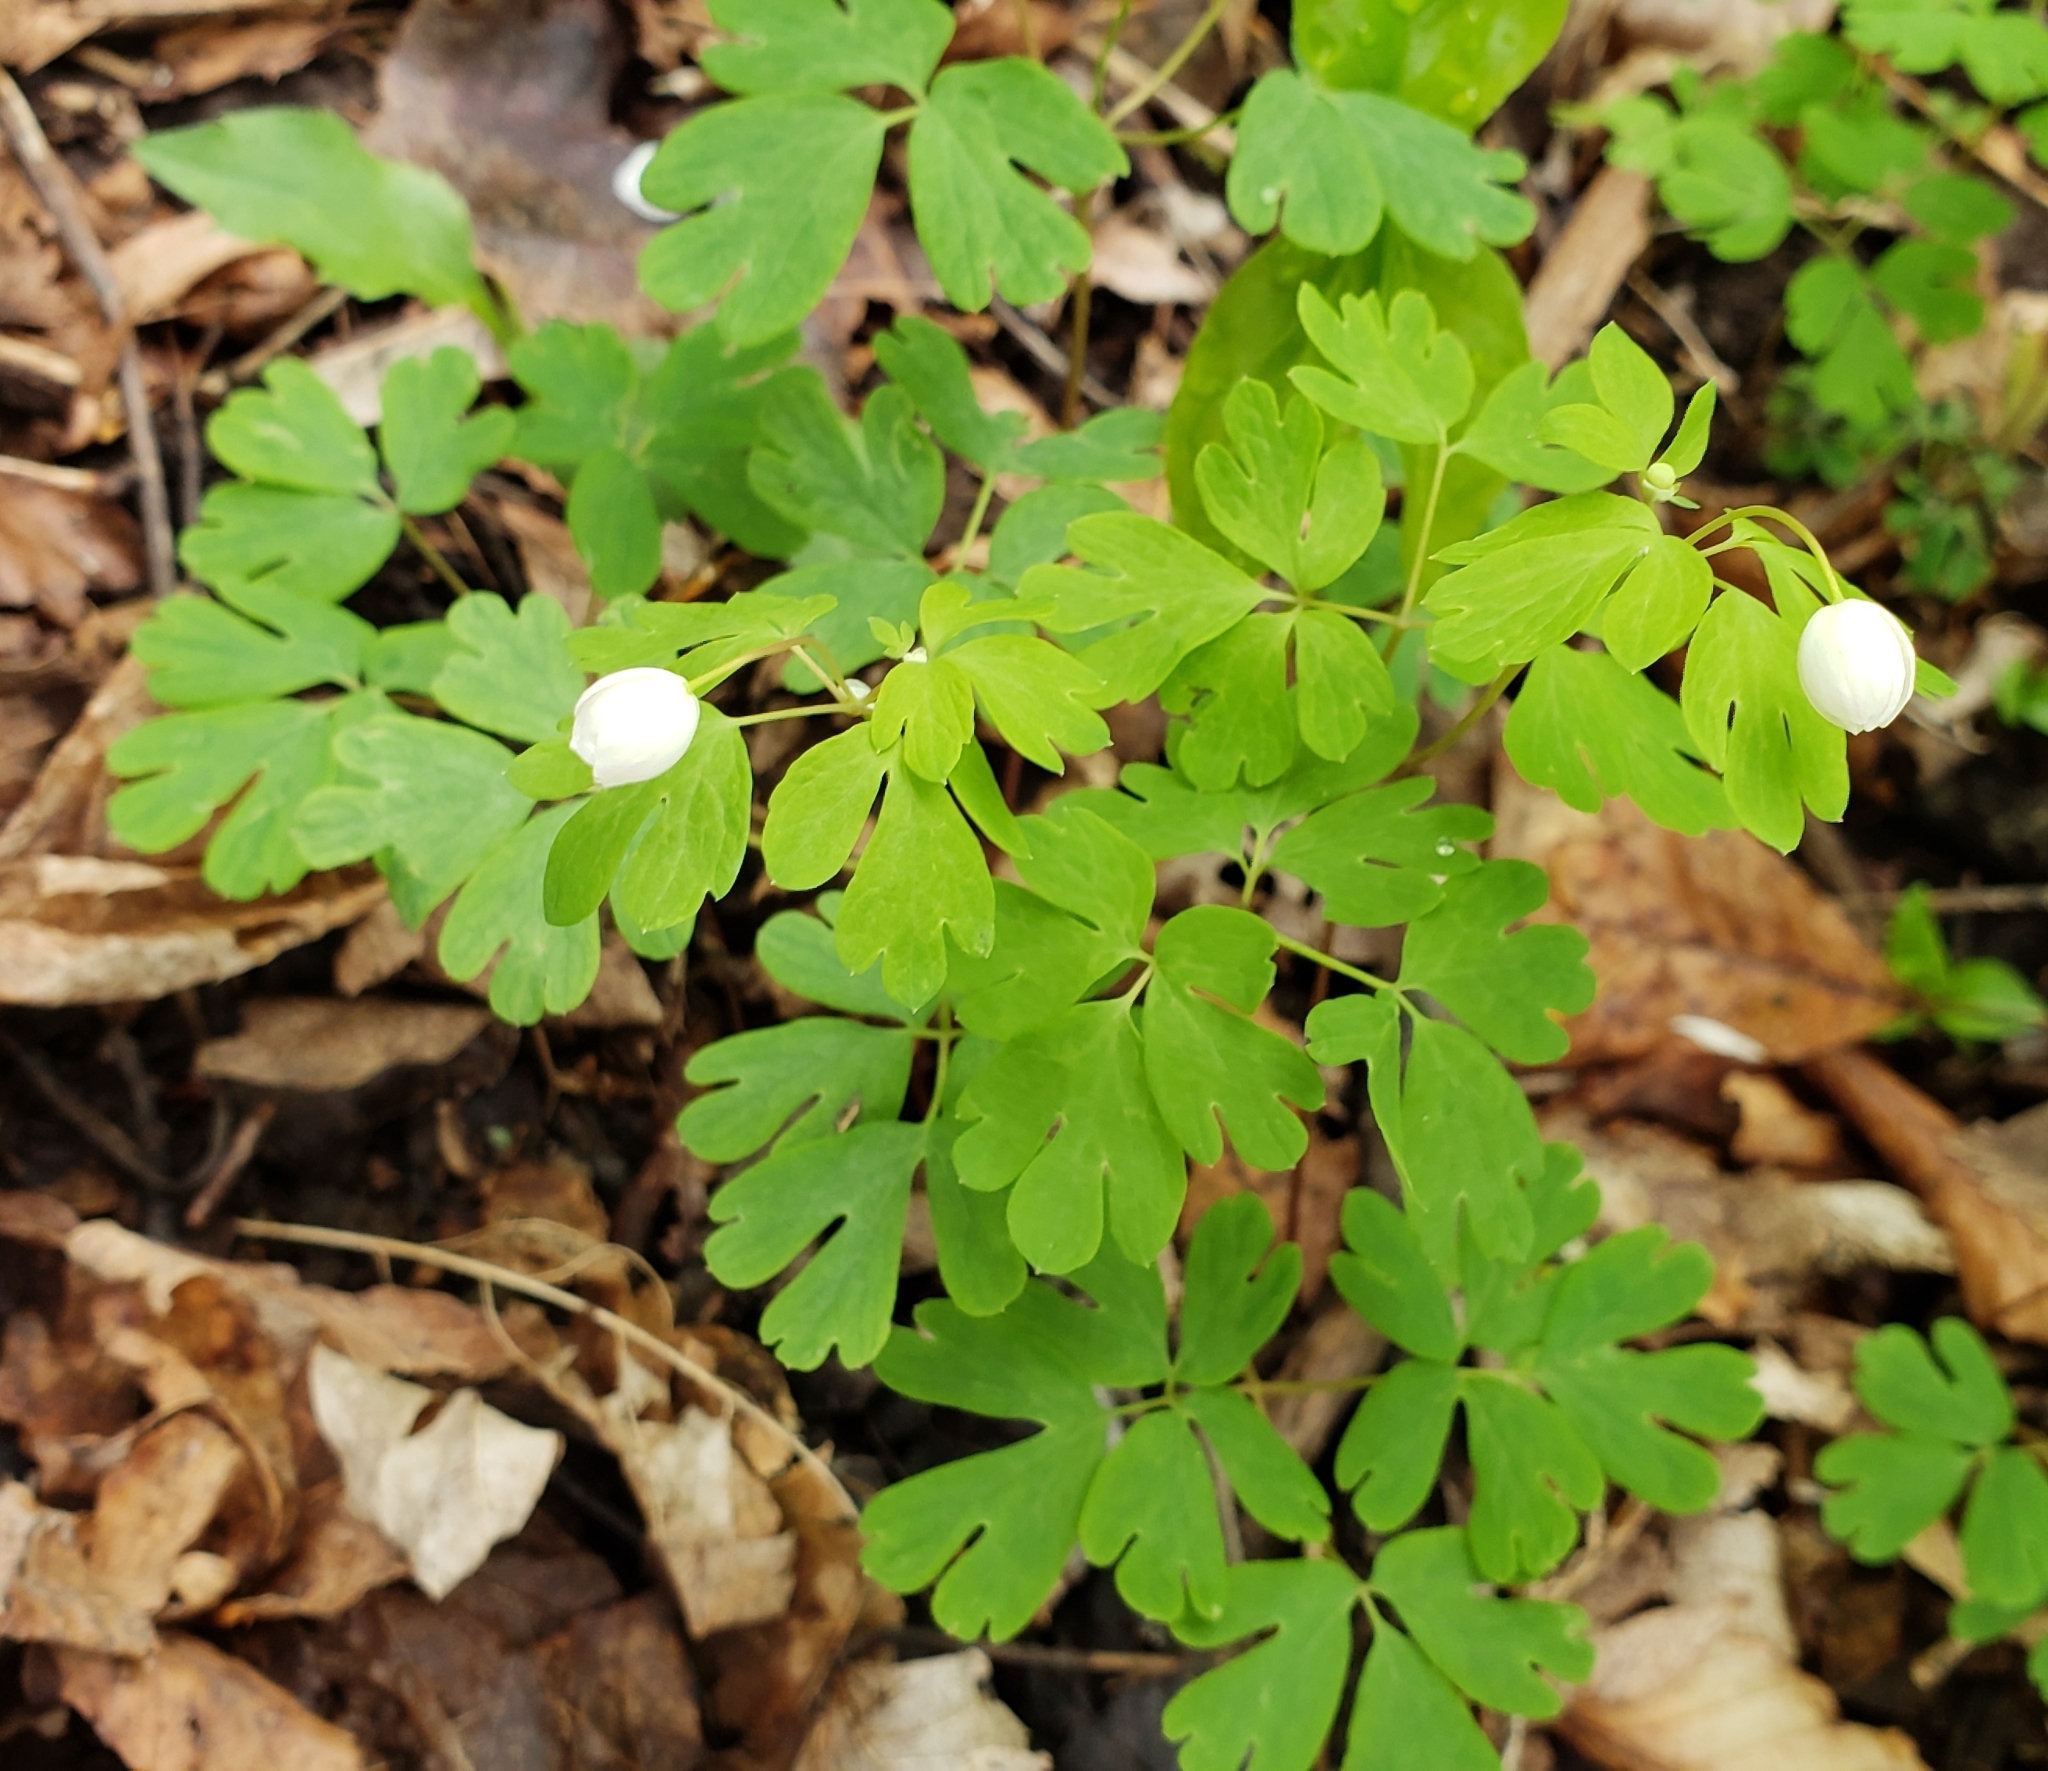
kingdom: Plantae
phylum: Tracheophyta
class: Magnoliopsida
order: Ranunculales
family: Ranunculaceae
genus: Enemion
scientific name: Enemion biternatum
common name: Eastern false rue-anemone
